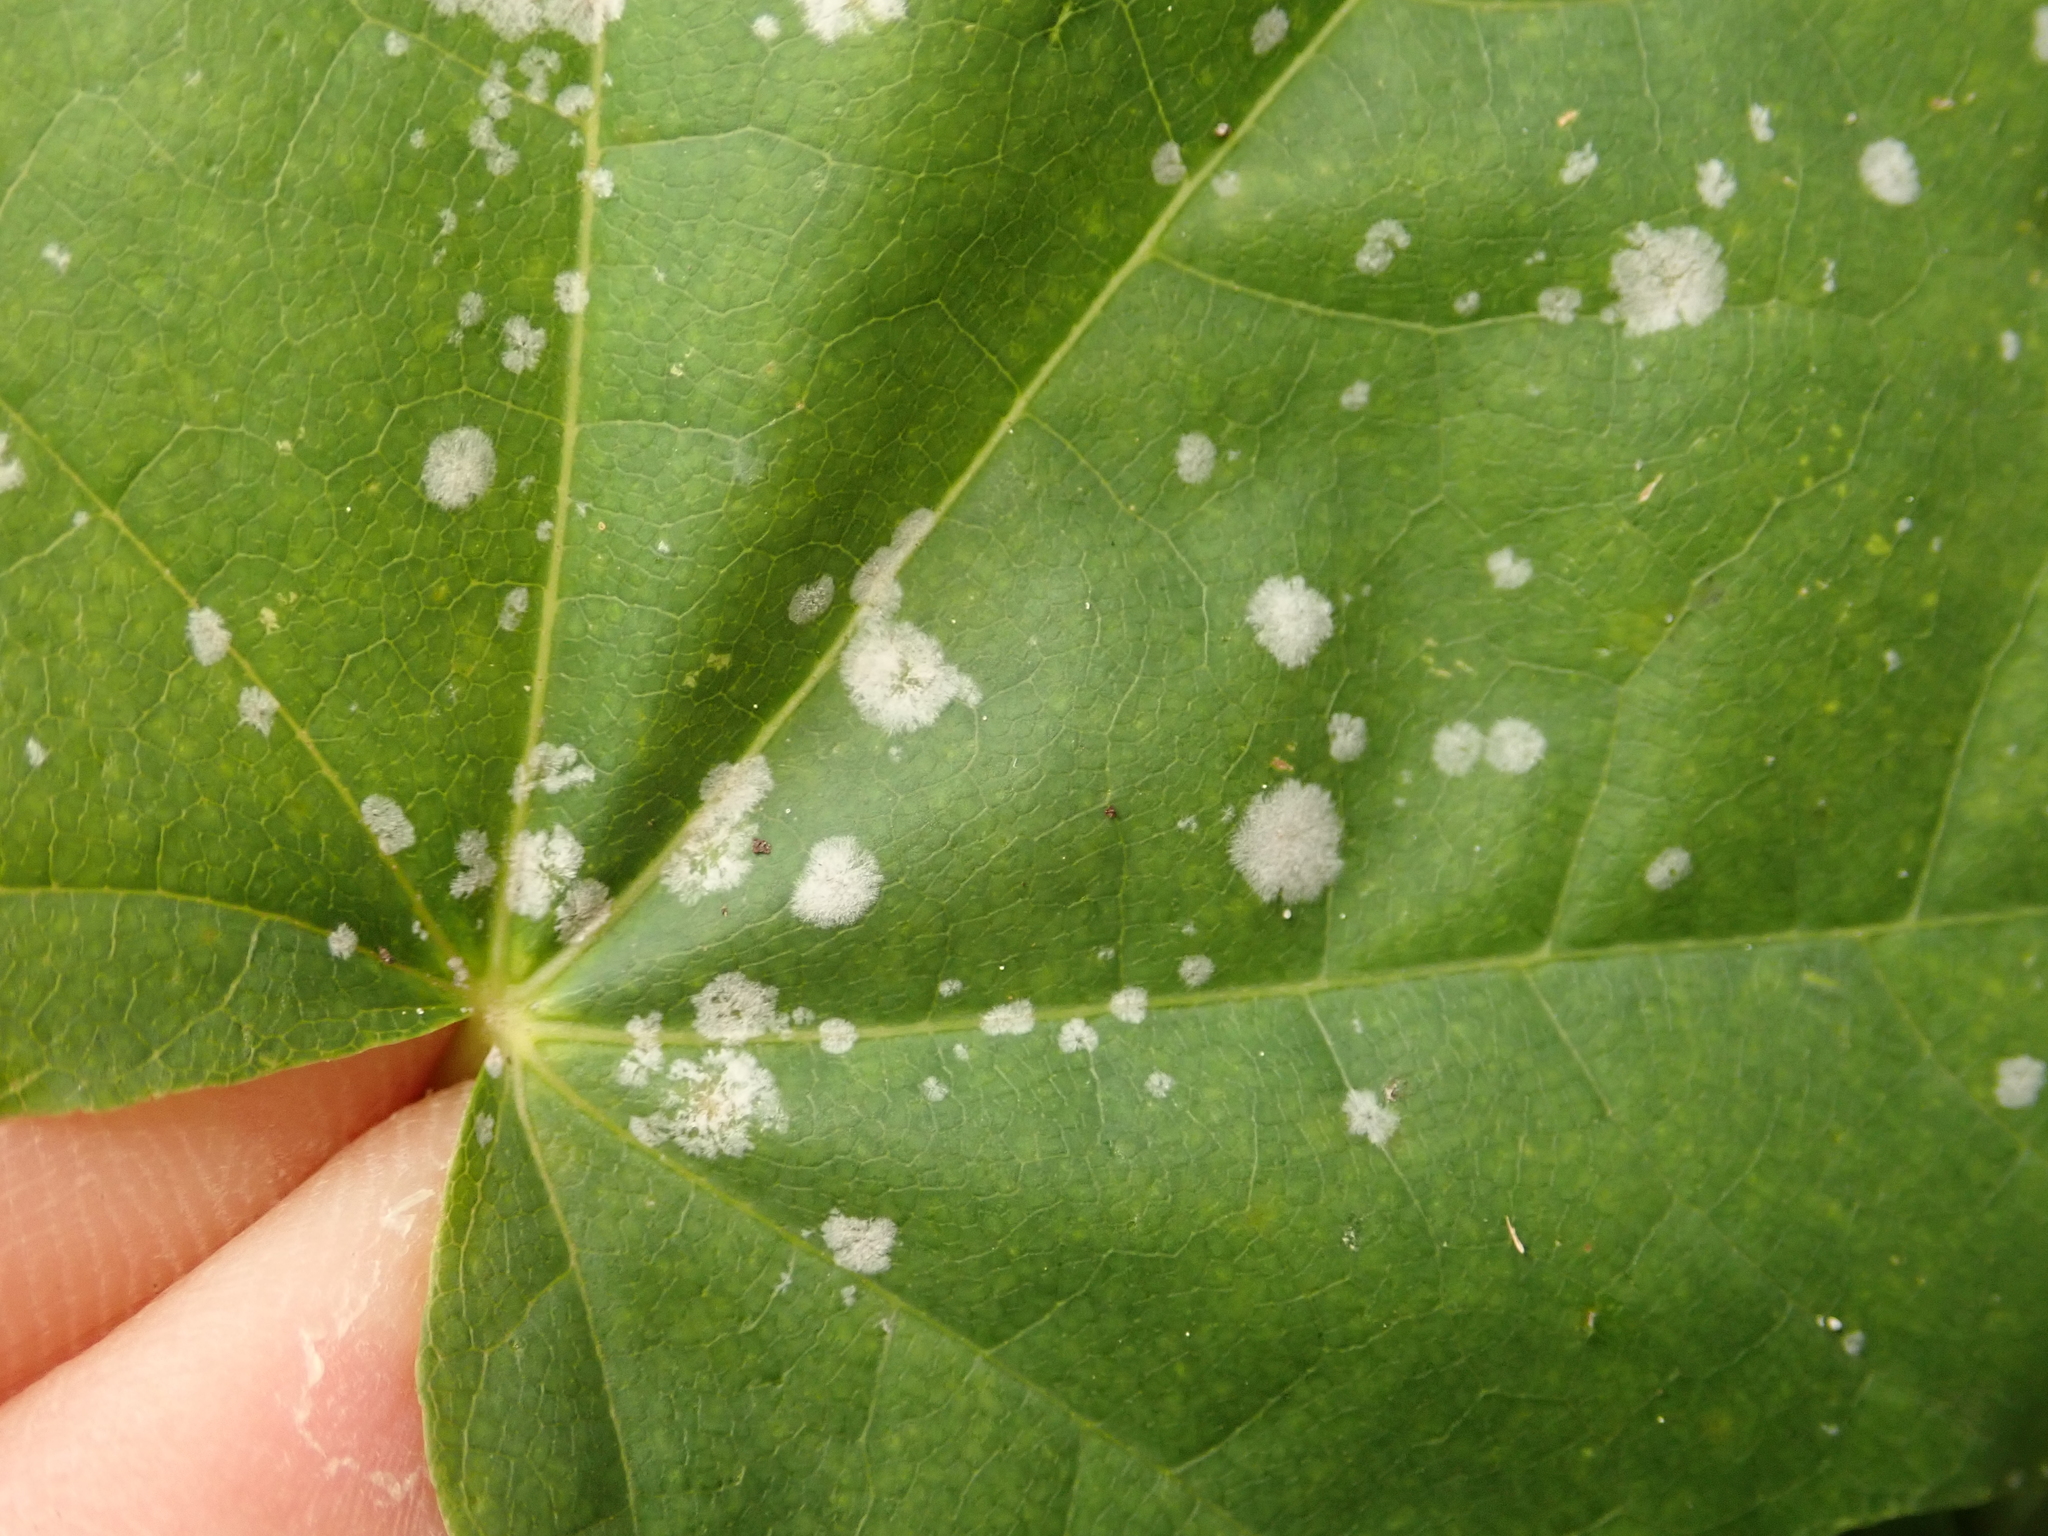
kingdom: Fungi
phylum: Ascomycota
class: Leotiomycetes
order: Helotiales
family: Erysiphaceae
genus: Sawadaea
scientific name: Sawadaea tulasnei
